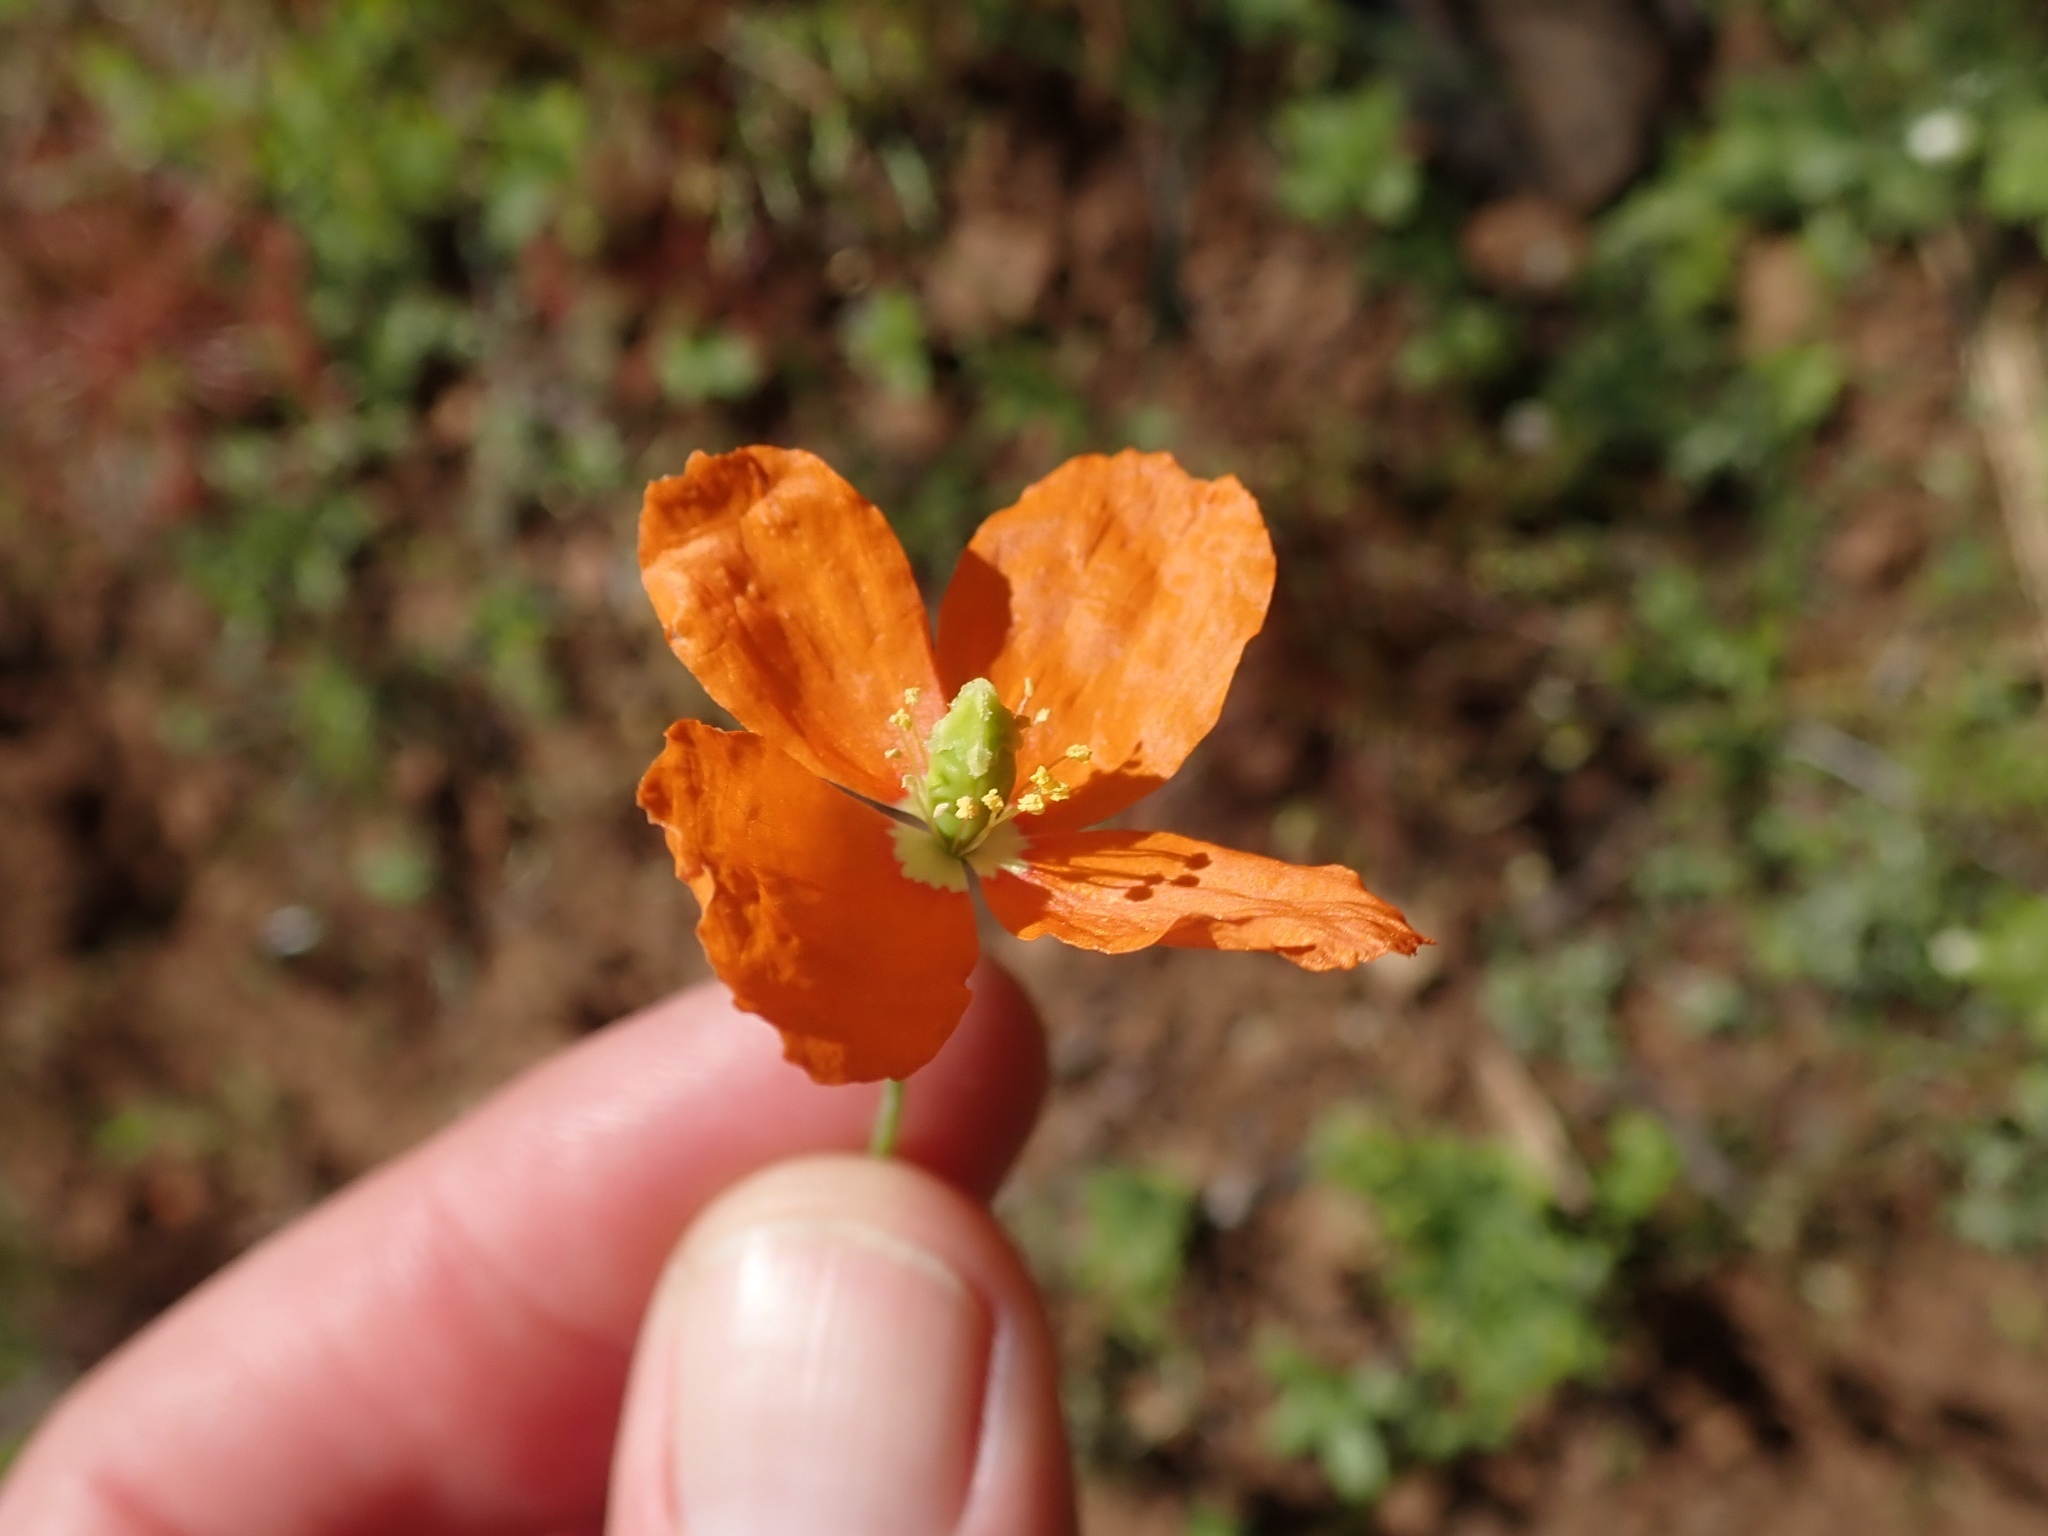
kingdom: Plantae
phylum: Tracheophyta
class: Magnoliopsida
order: Ranunculales
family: Papaveraceae
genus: Papaver
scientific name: Papaver californicum
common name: Fire poppy
